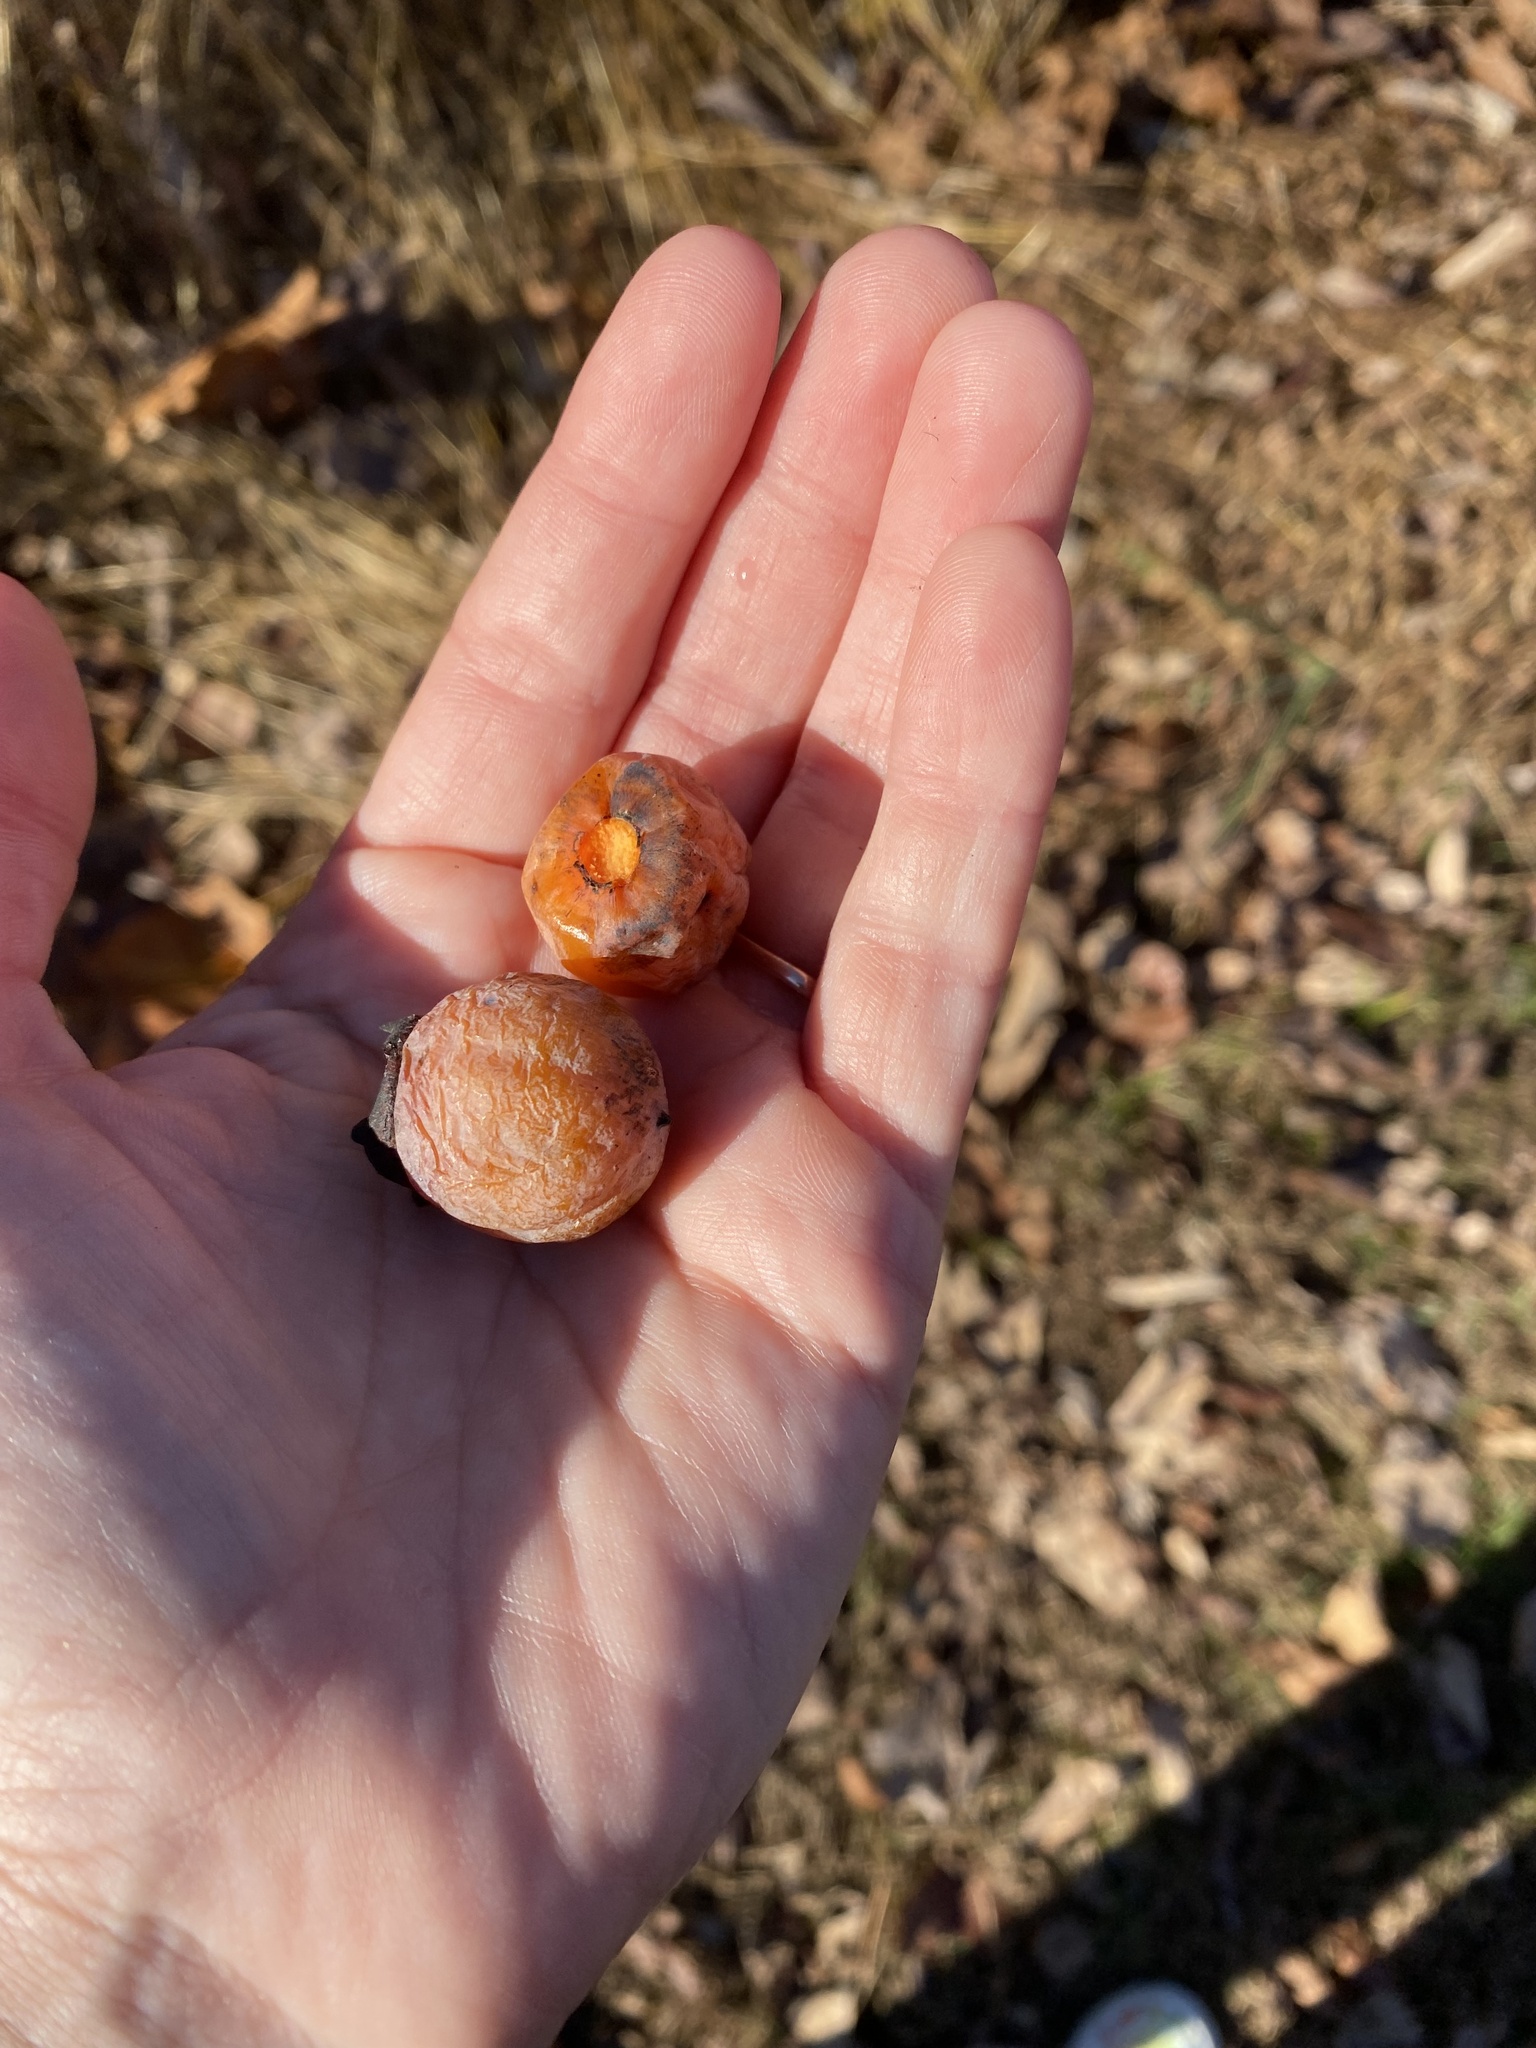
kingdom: Plantae
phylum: Tracheophyta
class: Magnoliopsida
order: Ericales
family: Ebenaceae
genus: Diospyros
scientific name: Diospyros virginiana
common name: Persimmon
